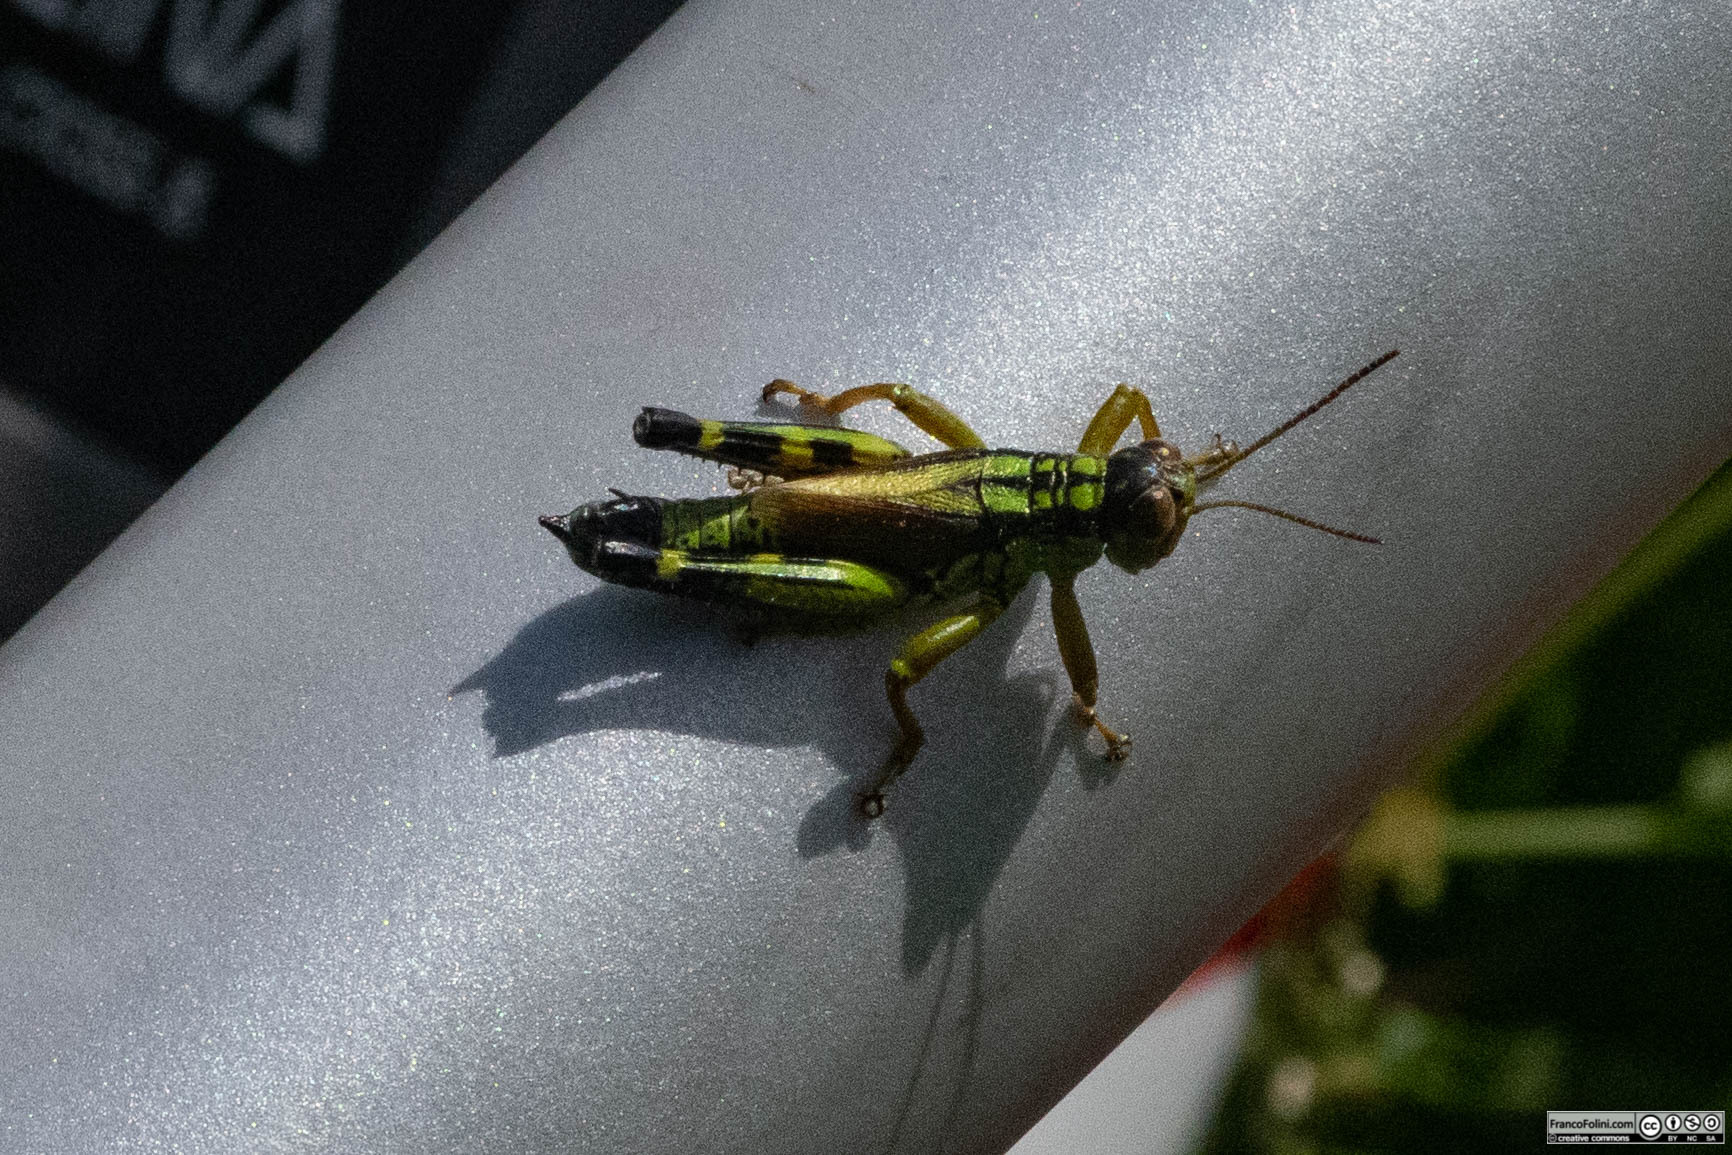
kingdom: Animalia
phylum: Arthropoda
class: Insecta
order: Orthoptera
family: Acrididae
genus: Miramella
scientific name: Miramella irena
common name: Long-winged mountain grasshopper
